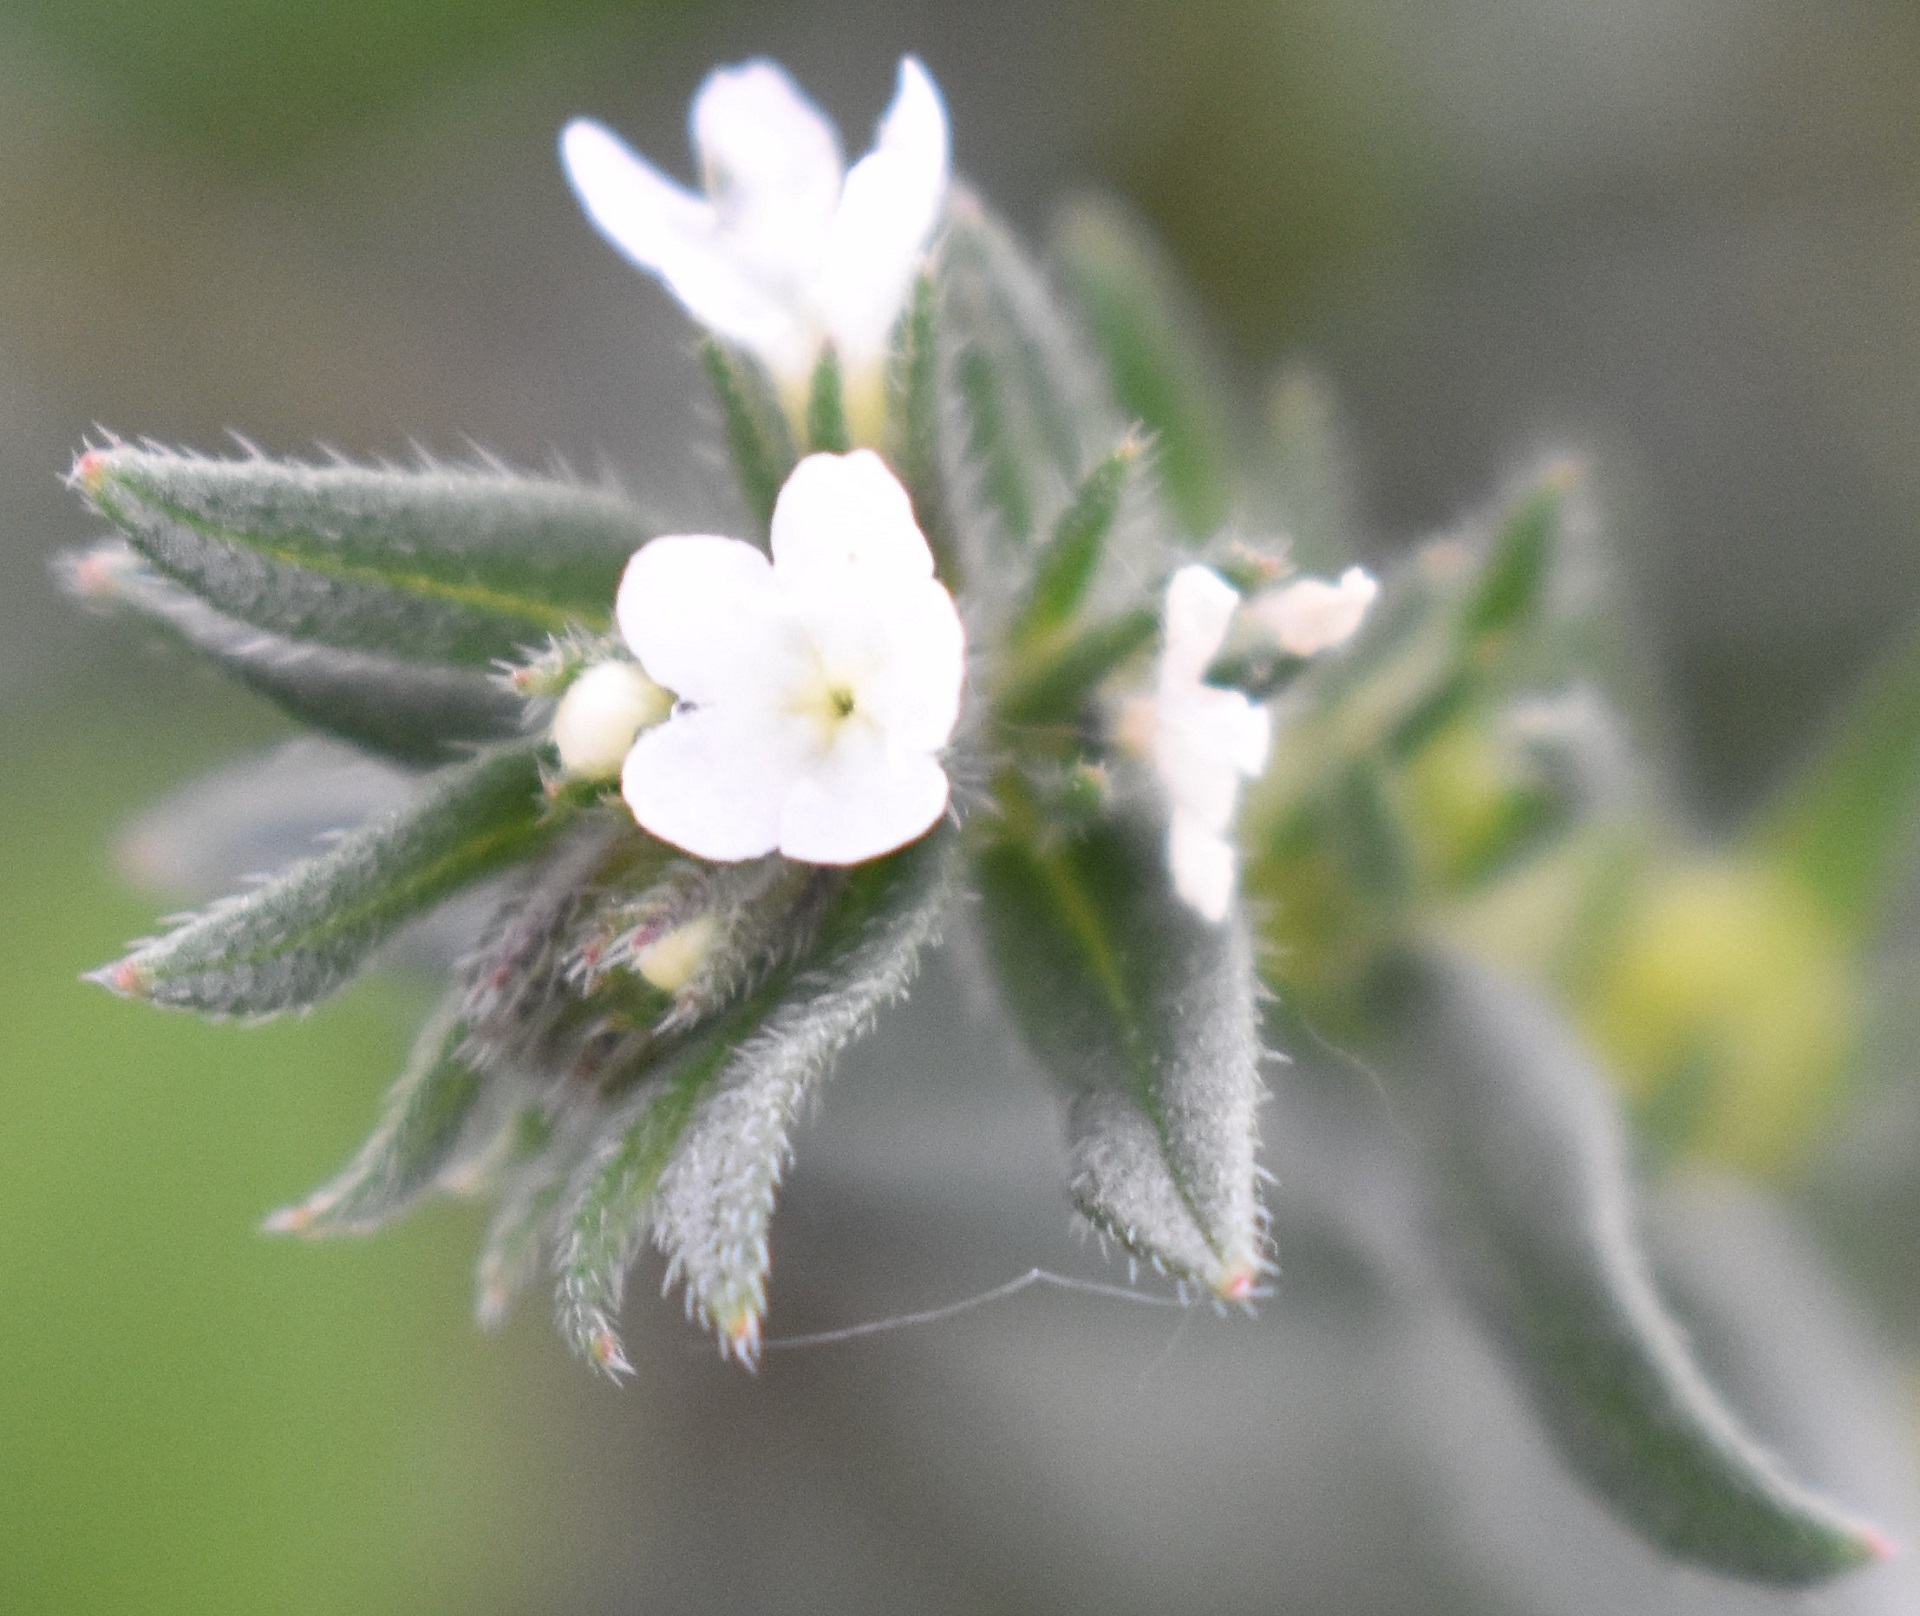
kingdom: Plantae
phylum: Tracheophyta
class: Magnoliopsida
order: Boraginales
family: Boraginaceae
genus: Buglossoides
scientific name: Buglossoides arvensis
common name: Corn gromwell
